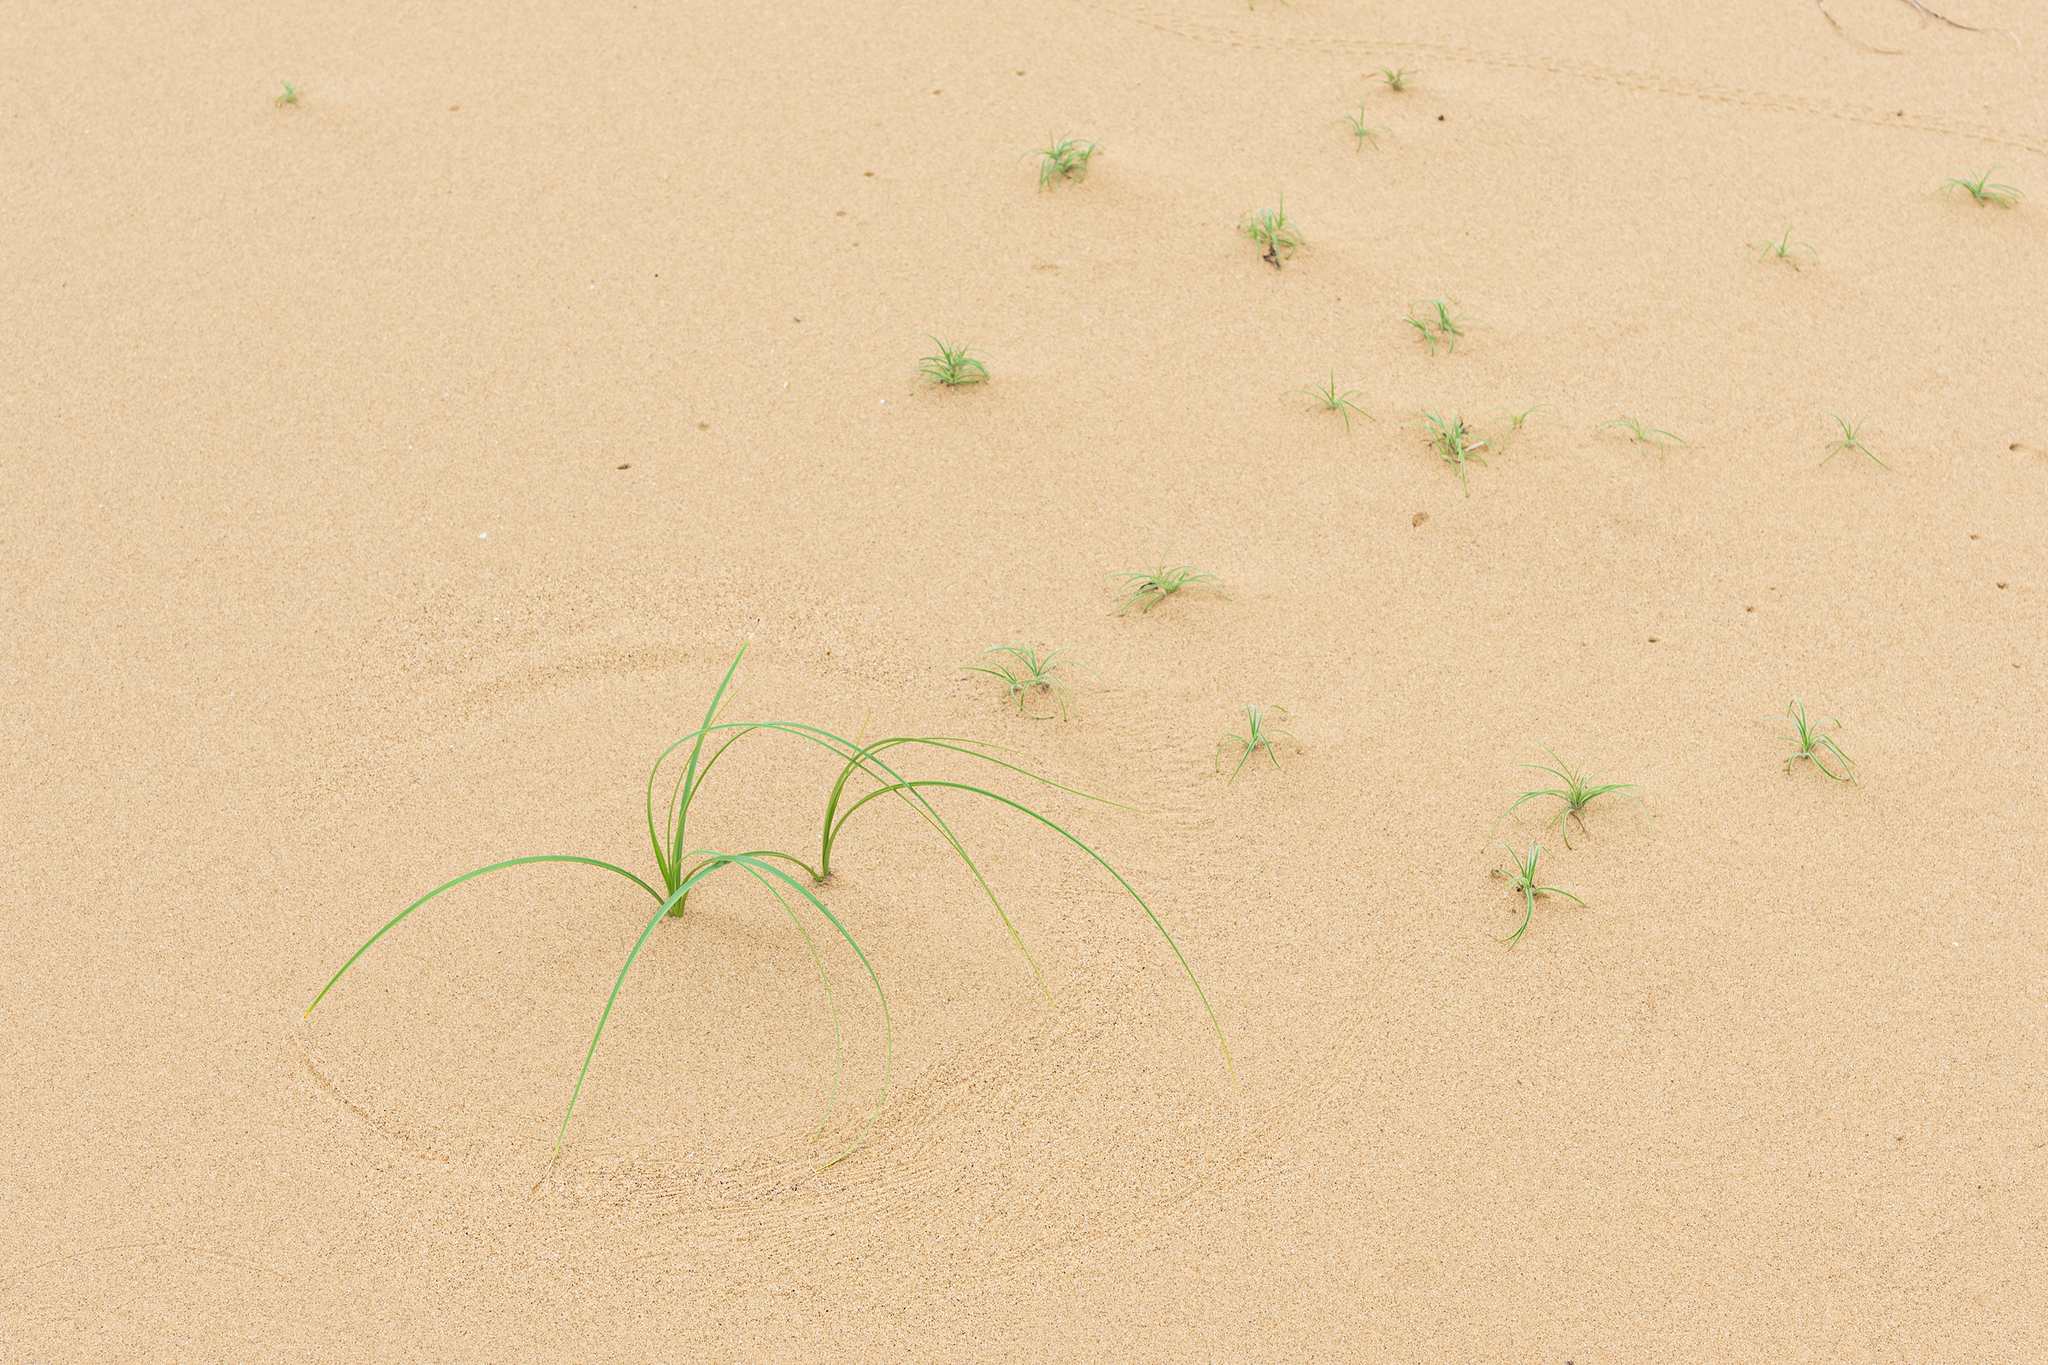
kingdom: Plantae
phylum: Tracheophyta
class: Liliopsida
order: Poales
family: Cyperaceae
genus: Carex
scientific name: Carex pumila
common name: Dwarf sedge
